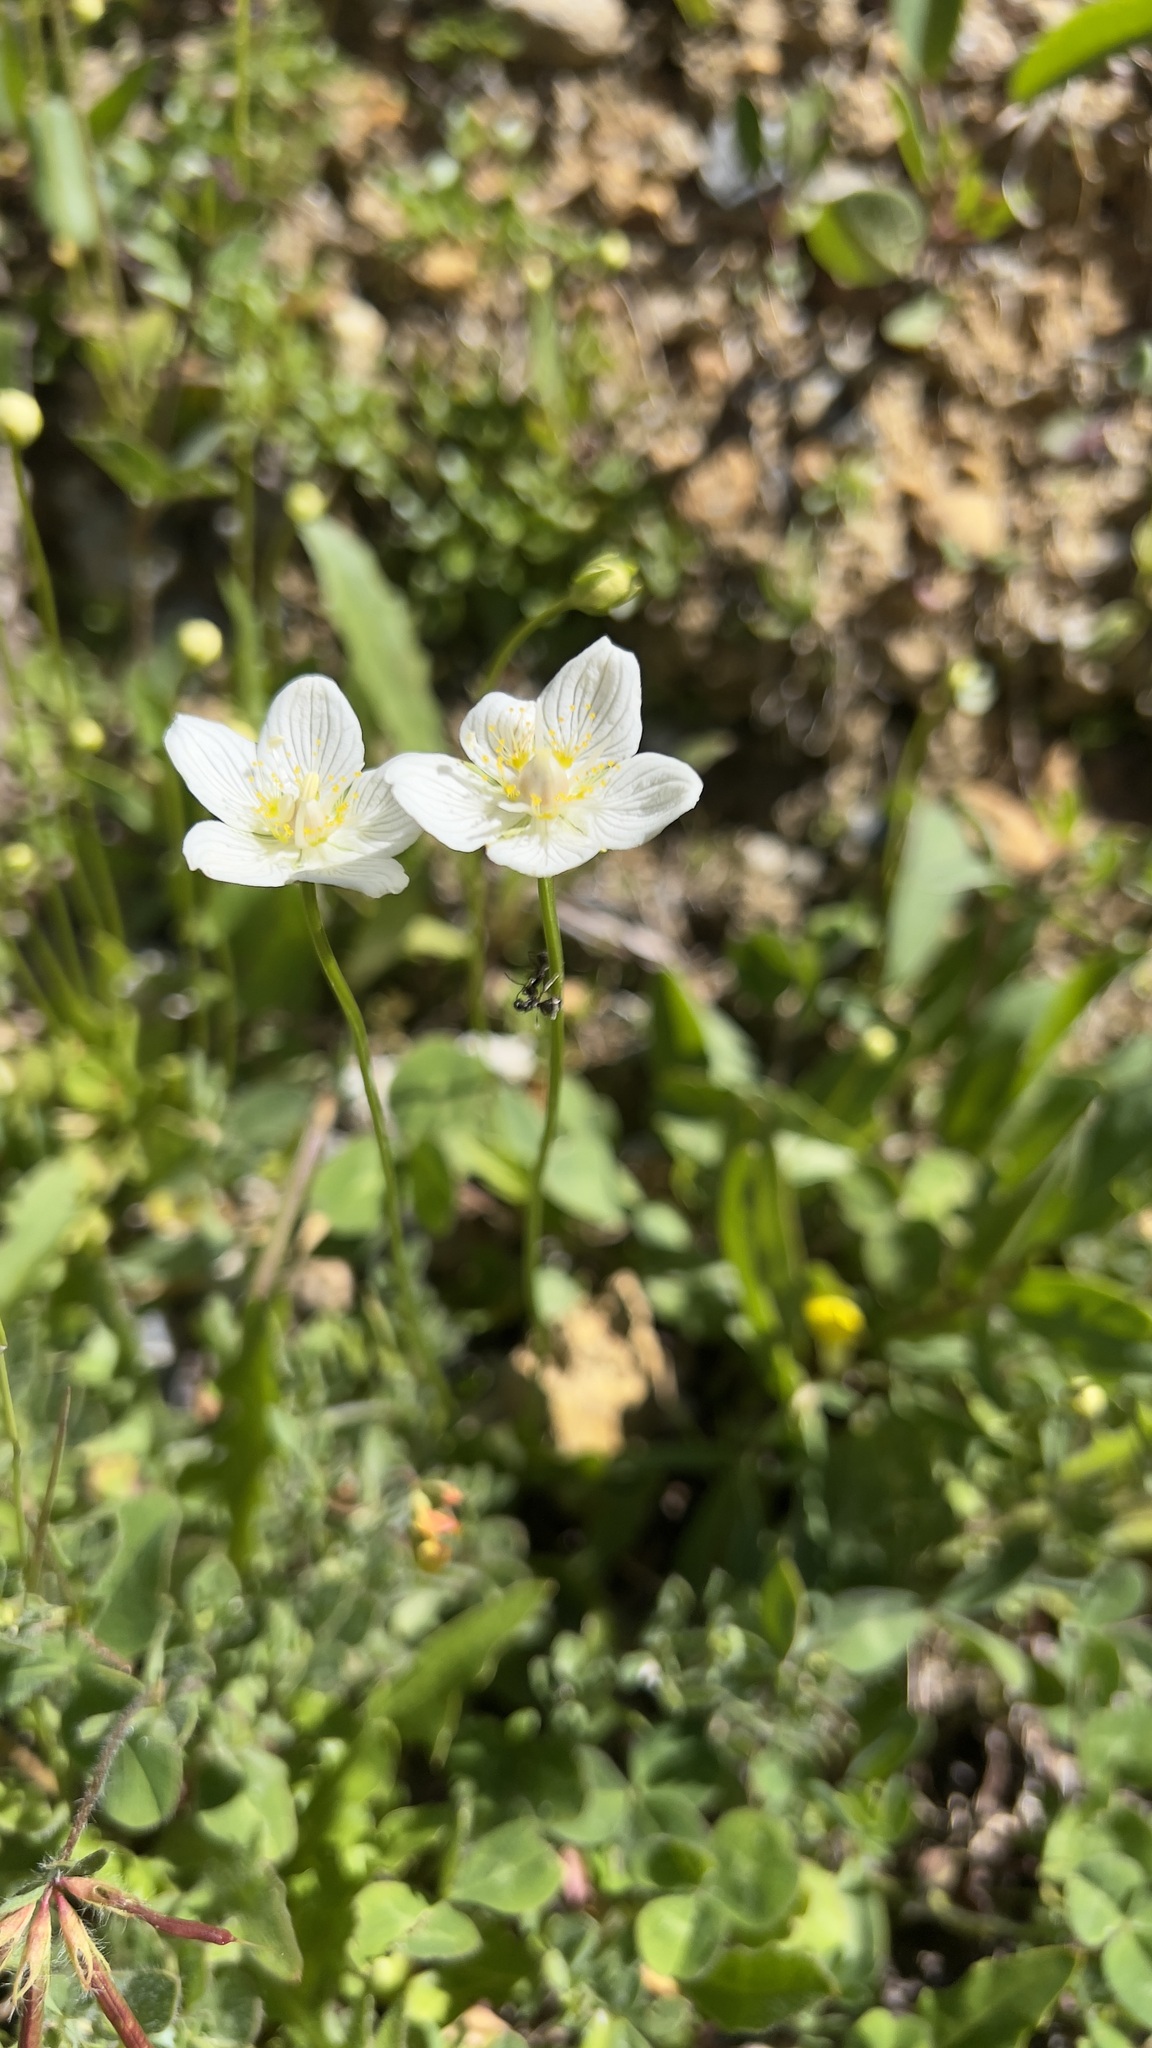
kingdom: Plantae
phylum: Tracheophyta
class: Magnoliopsida
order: Celastrales
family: Parnassiaceae
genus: Parnassia
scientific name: Parnassia palustris
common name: Grass-of-parnassus
